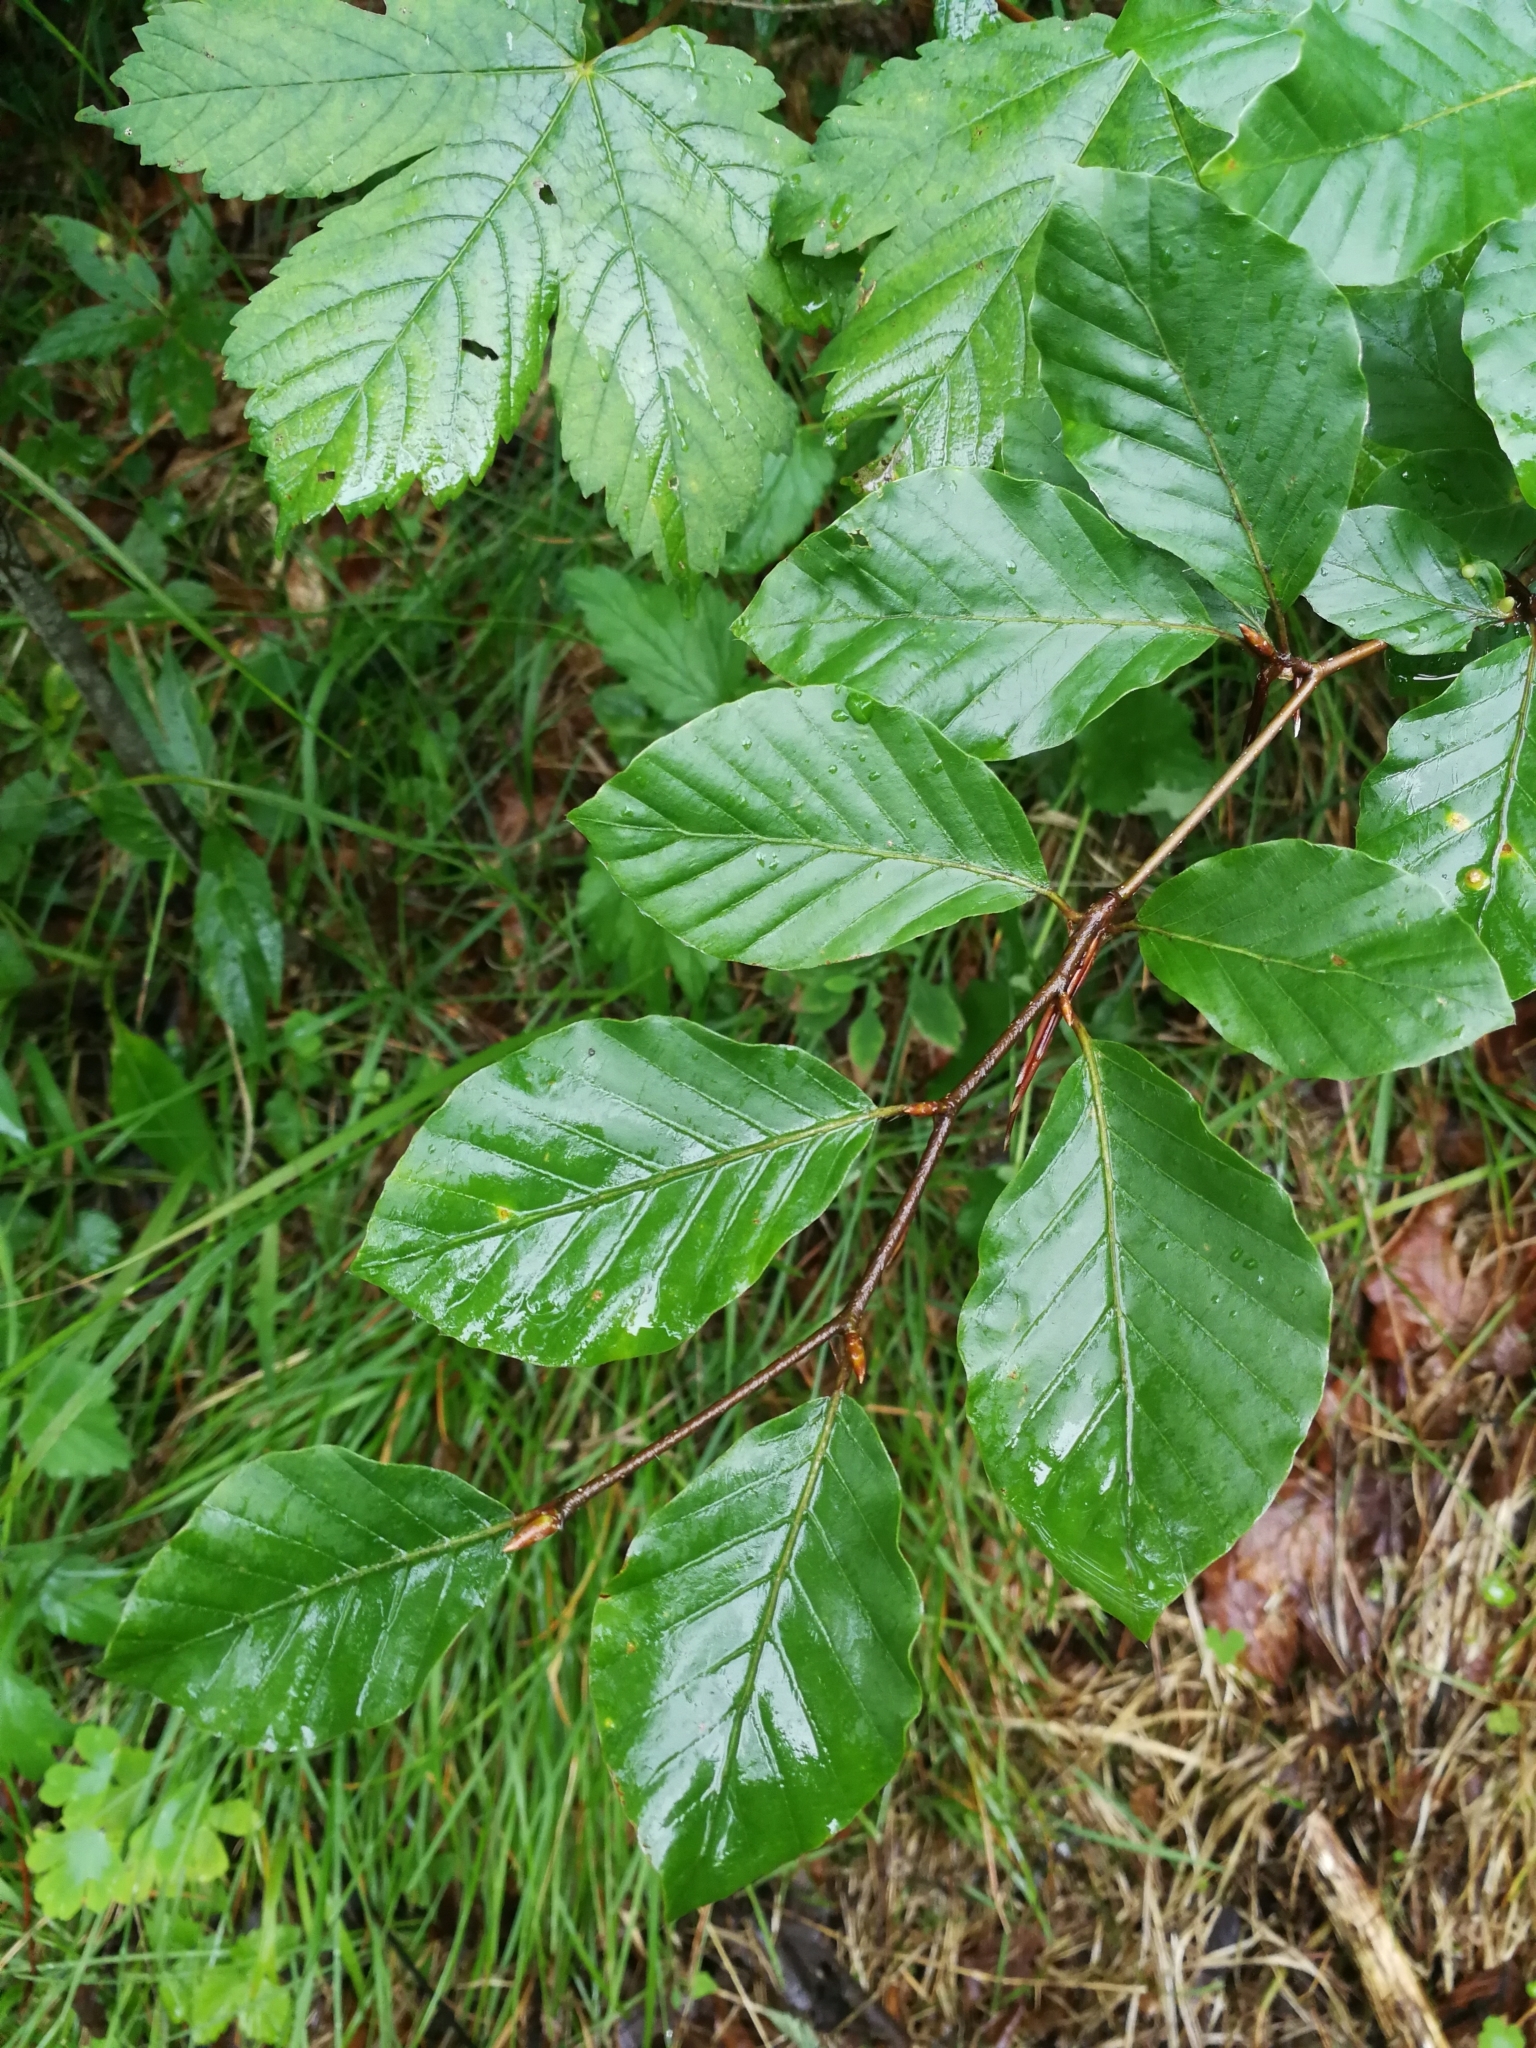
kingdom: Plantae
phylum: Tracheophyta
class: Magnoliopsida
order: Fagales
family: Fagaceae
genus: Fagus
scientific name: Fagus sylvatica
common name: Beech
